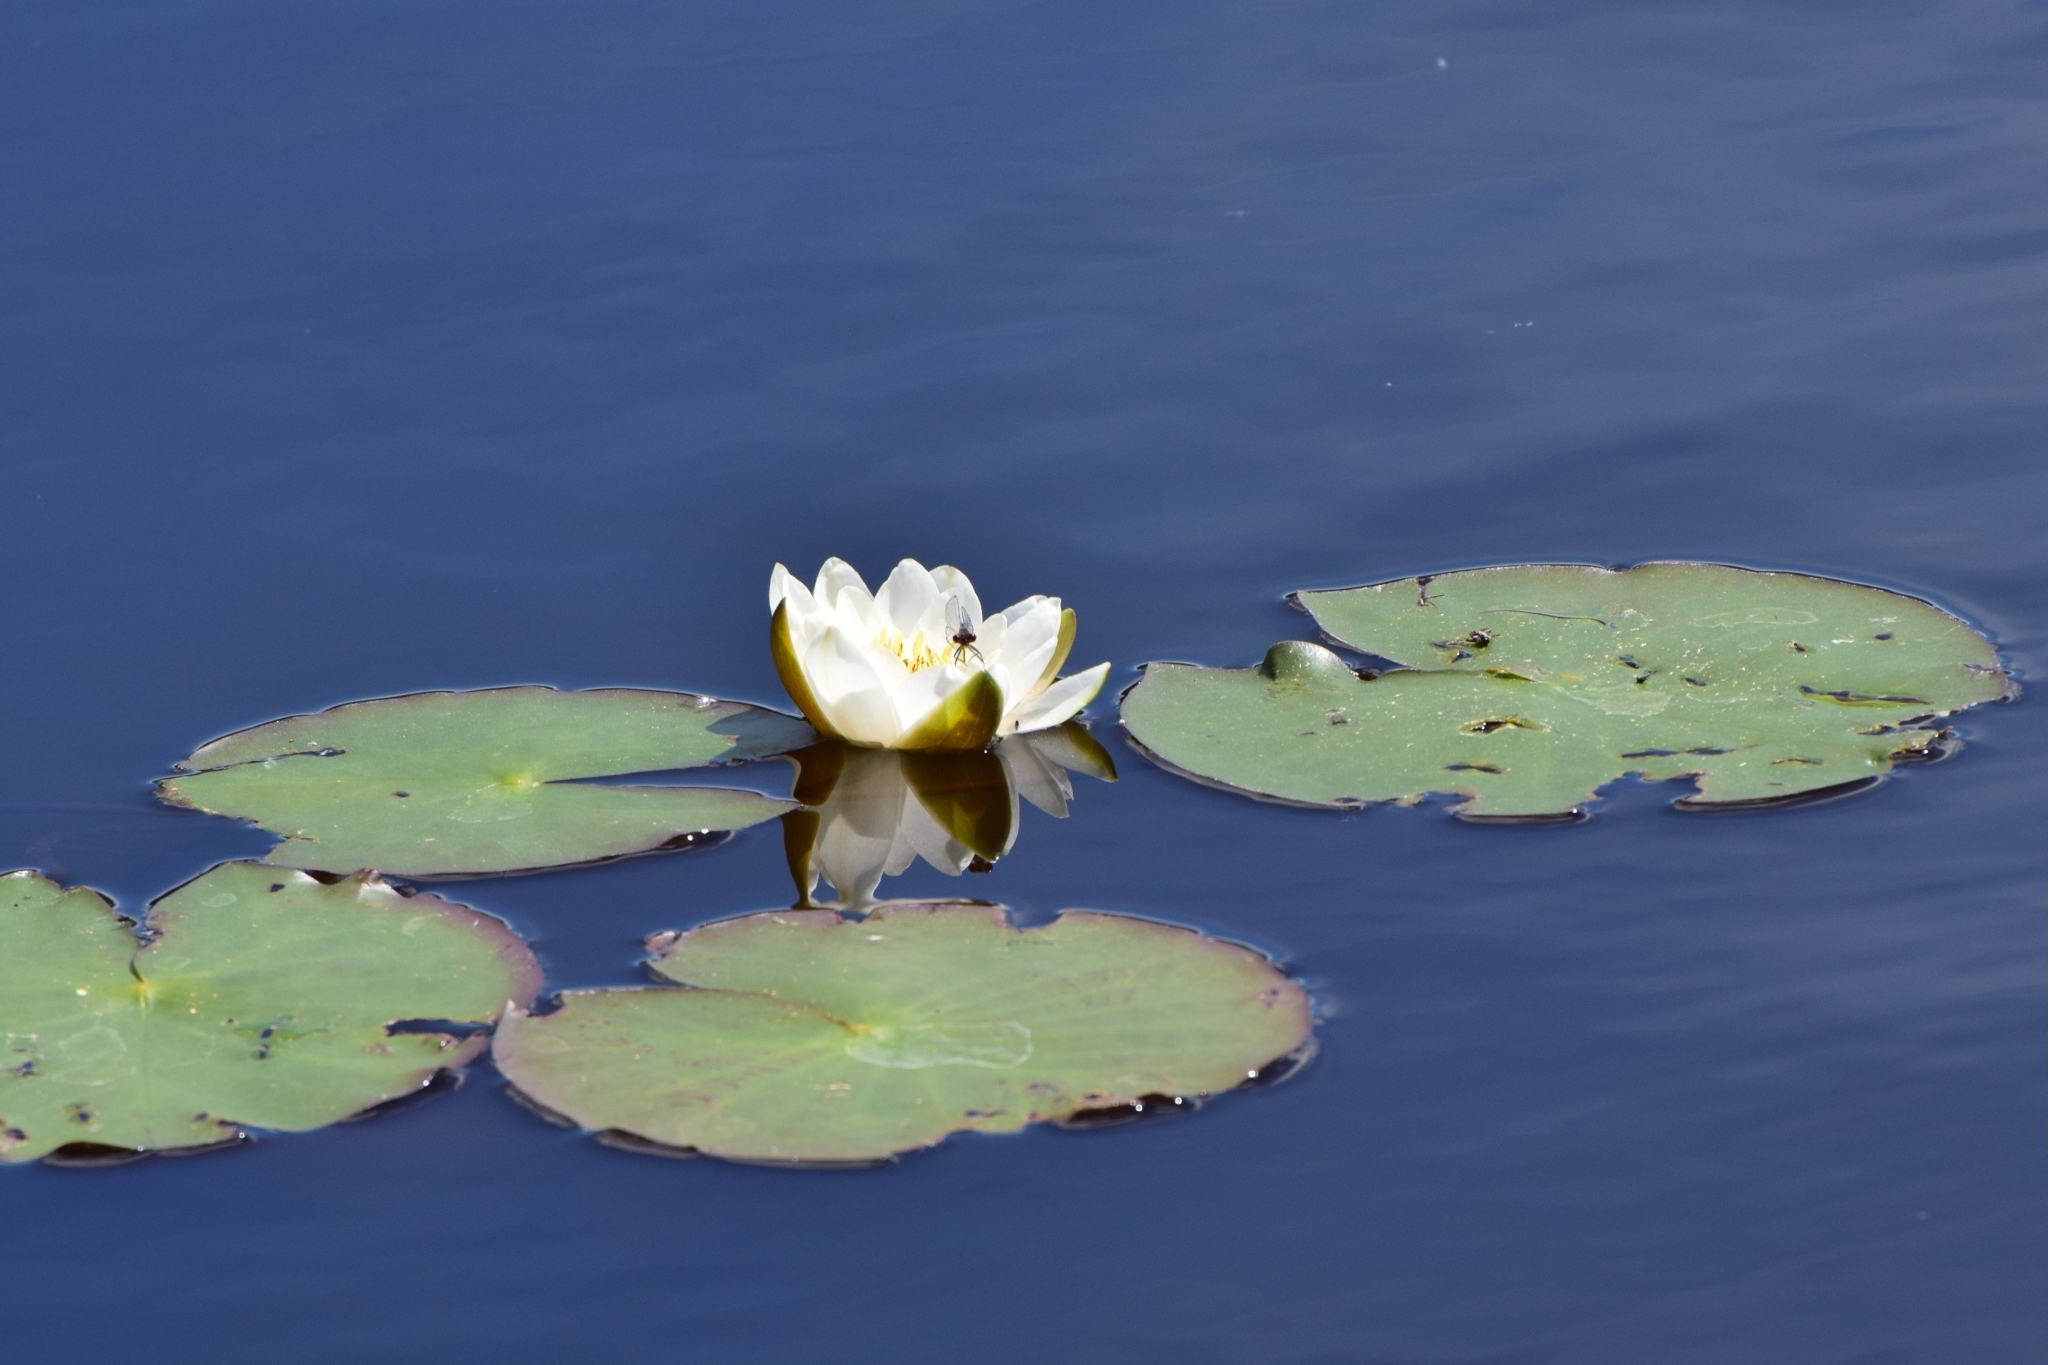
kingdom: Plantae
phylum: Tracheophyta
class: Magnoliopsida
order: Nymphaeales
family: Nymphaeaceae
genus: Nymphaea
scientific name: Nymphaea candida
